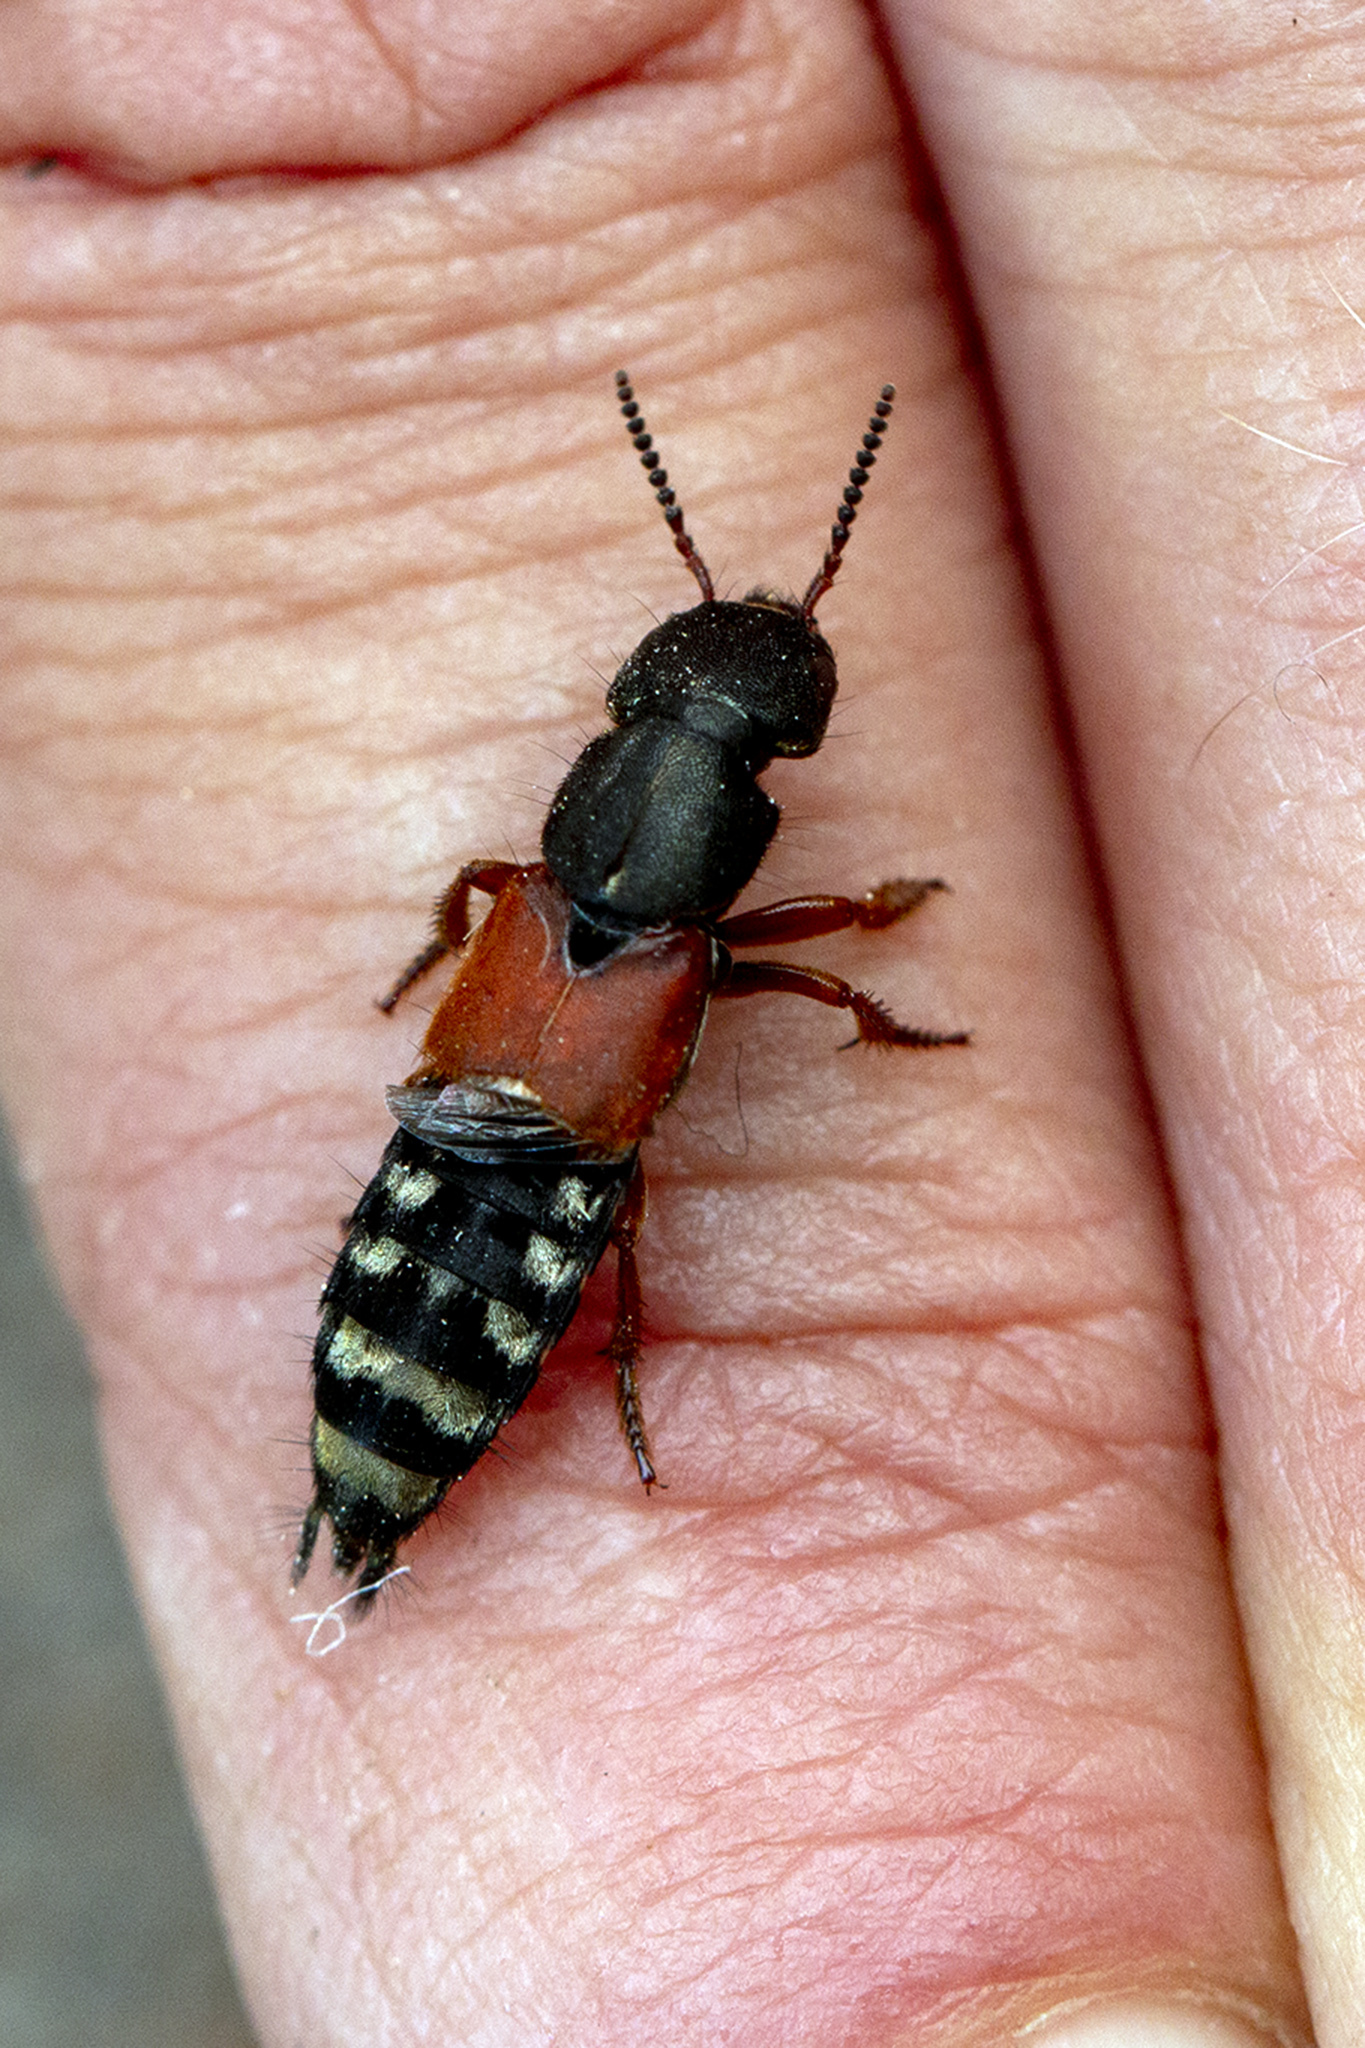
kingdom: Animalia
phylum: Arthropoda
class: Insecta
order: Coleoptera
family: Staphylinidae
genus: Platydracus
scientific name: Platydracus stercorarius
